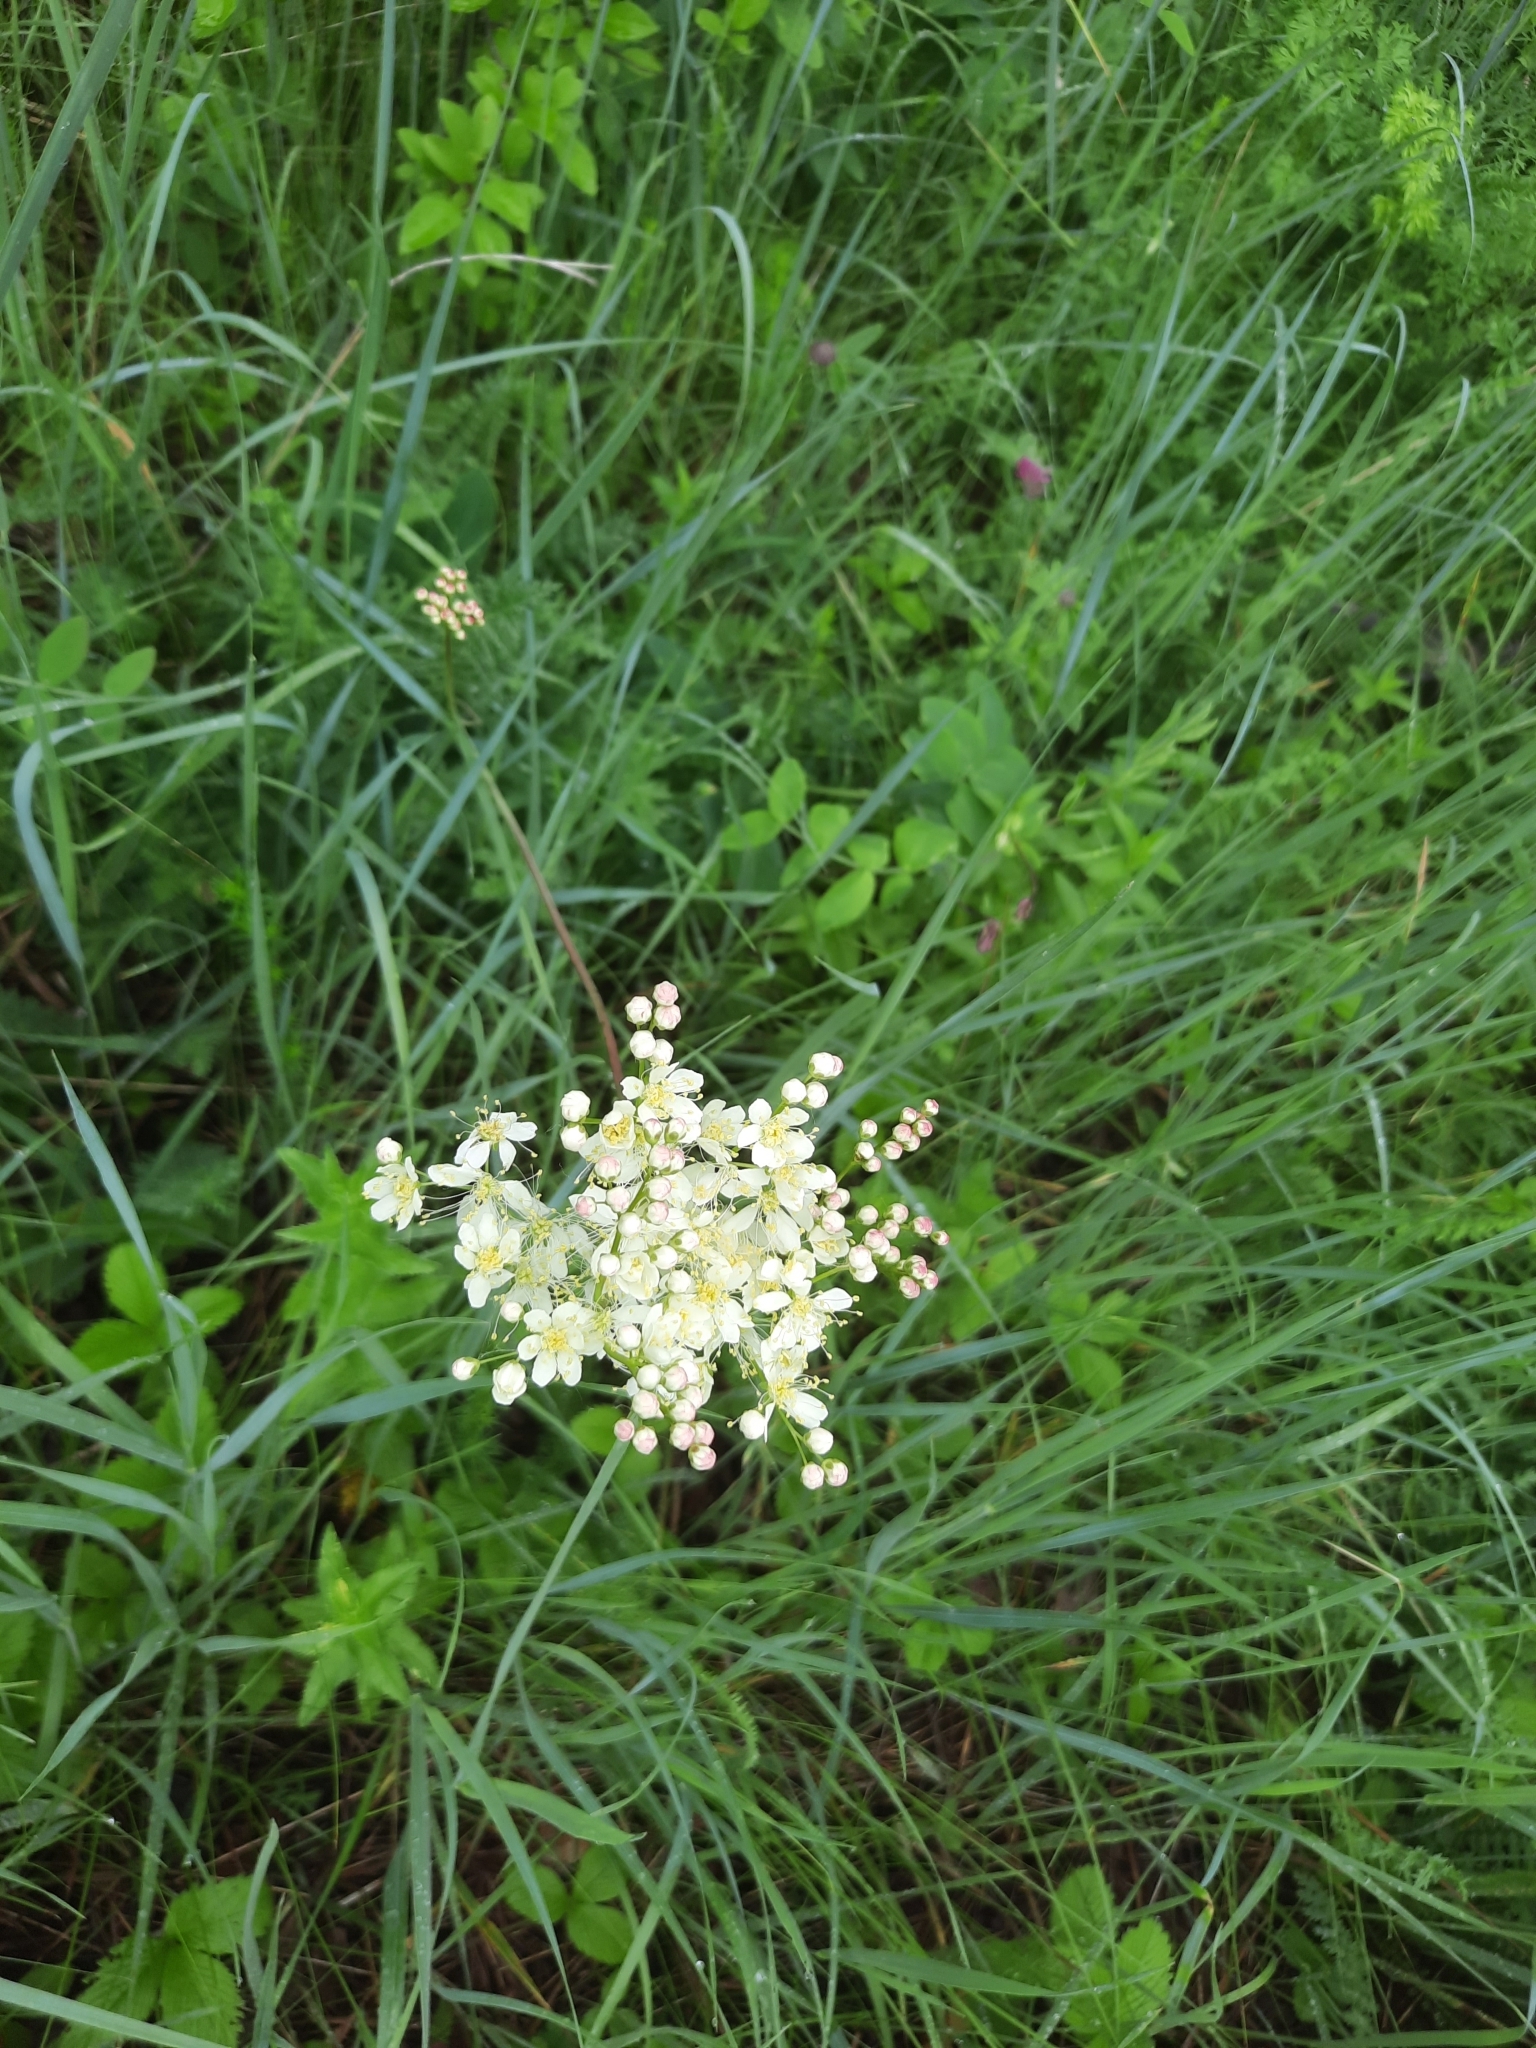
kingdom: Plantae
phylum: Tracheophyta
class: Magnoliopsida
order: Rosales
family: Rosaceae
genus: Filipendula
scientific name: Filipendula vulgaris
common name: Dropwort
